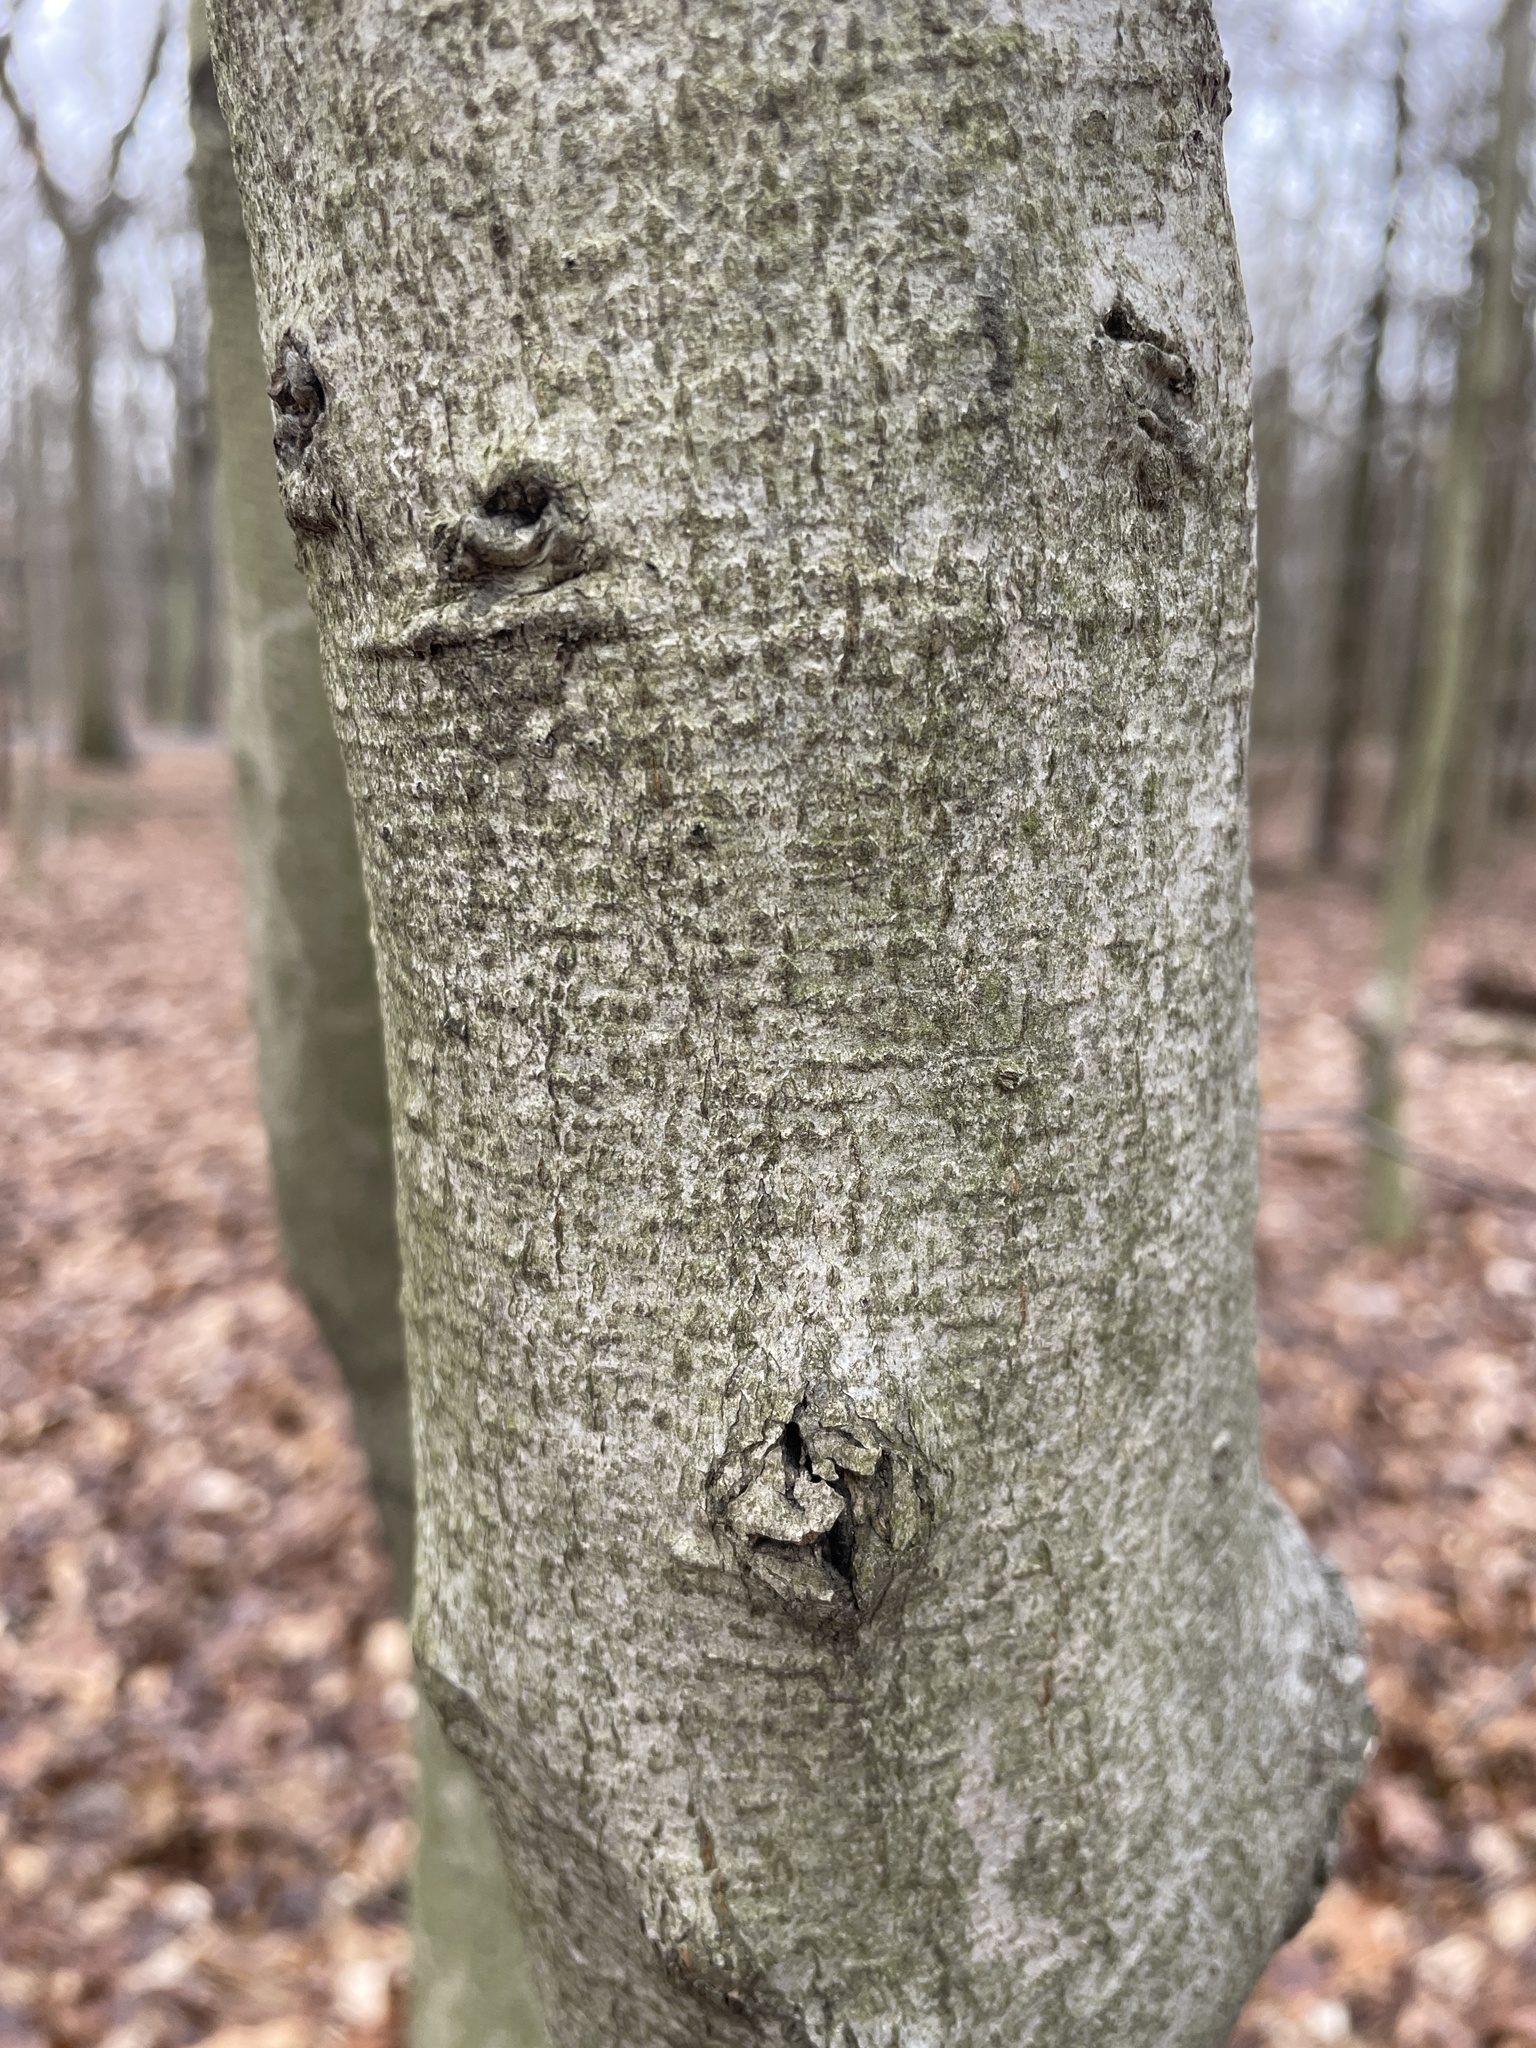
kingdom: Plantae
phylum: Tracheophyta
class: Magnoliopsida
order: Fagales
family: Fagaceae
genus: Fagus
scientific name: Fagus grandifolia
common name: American beech
